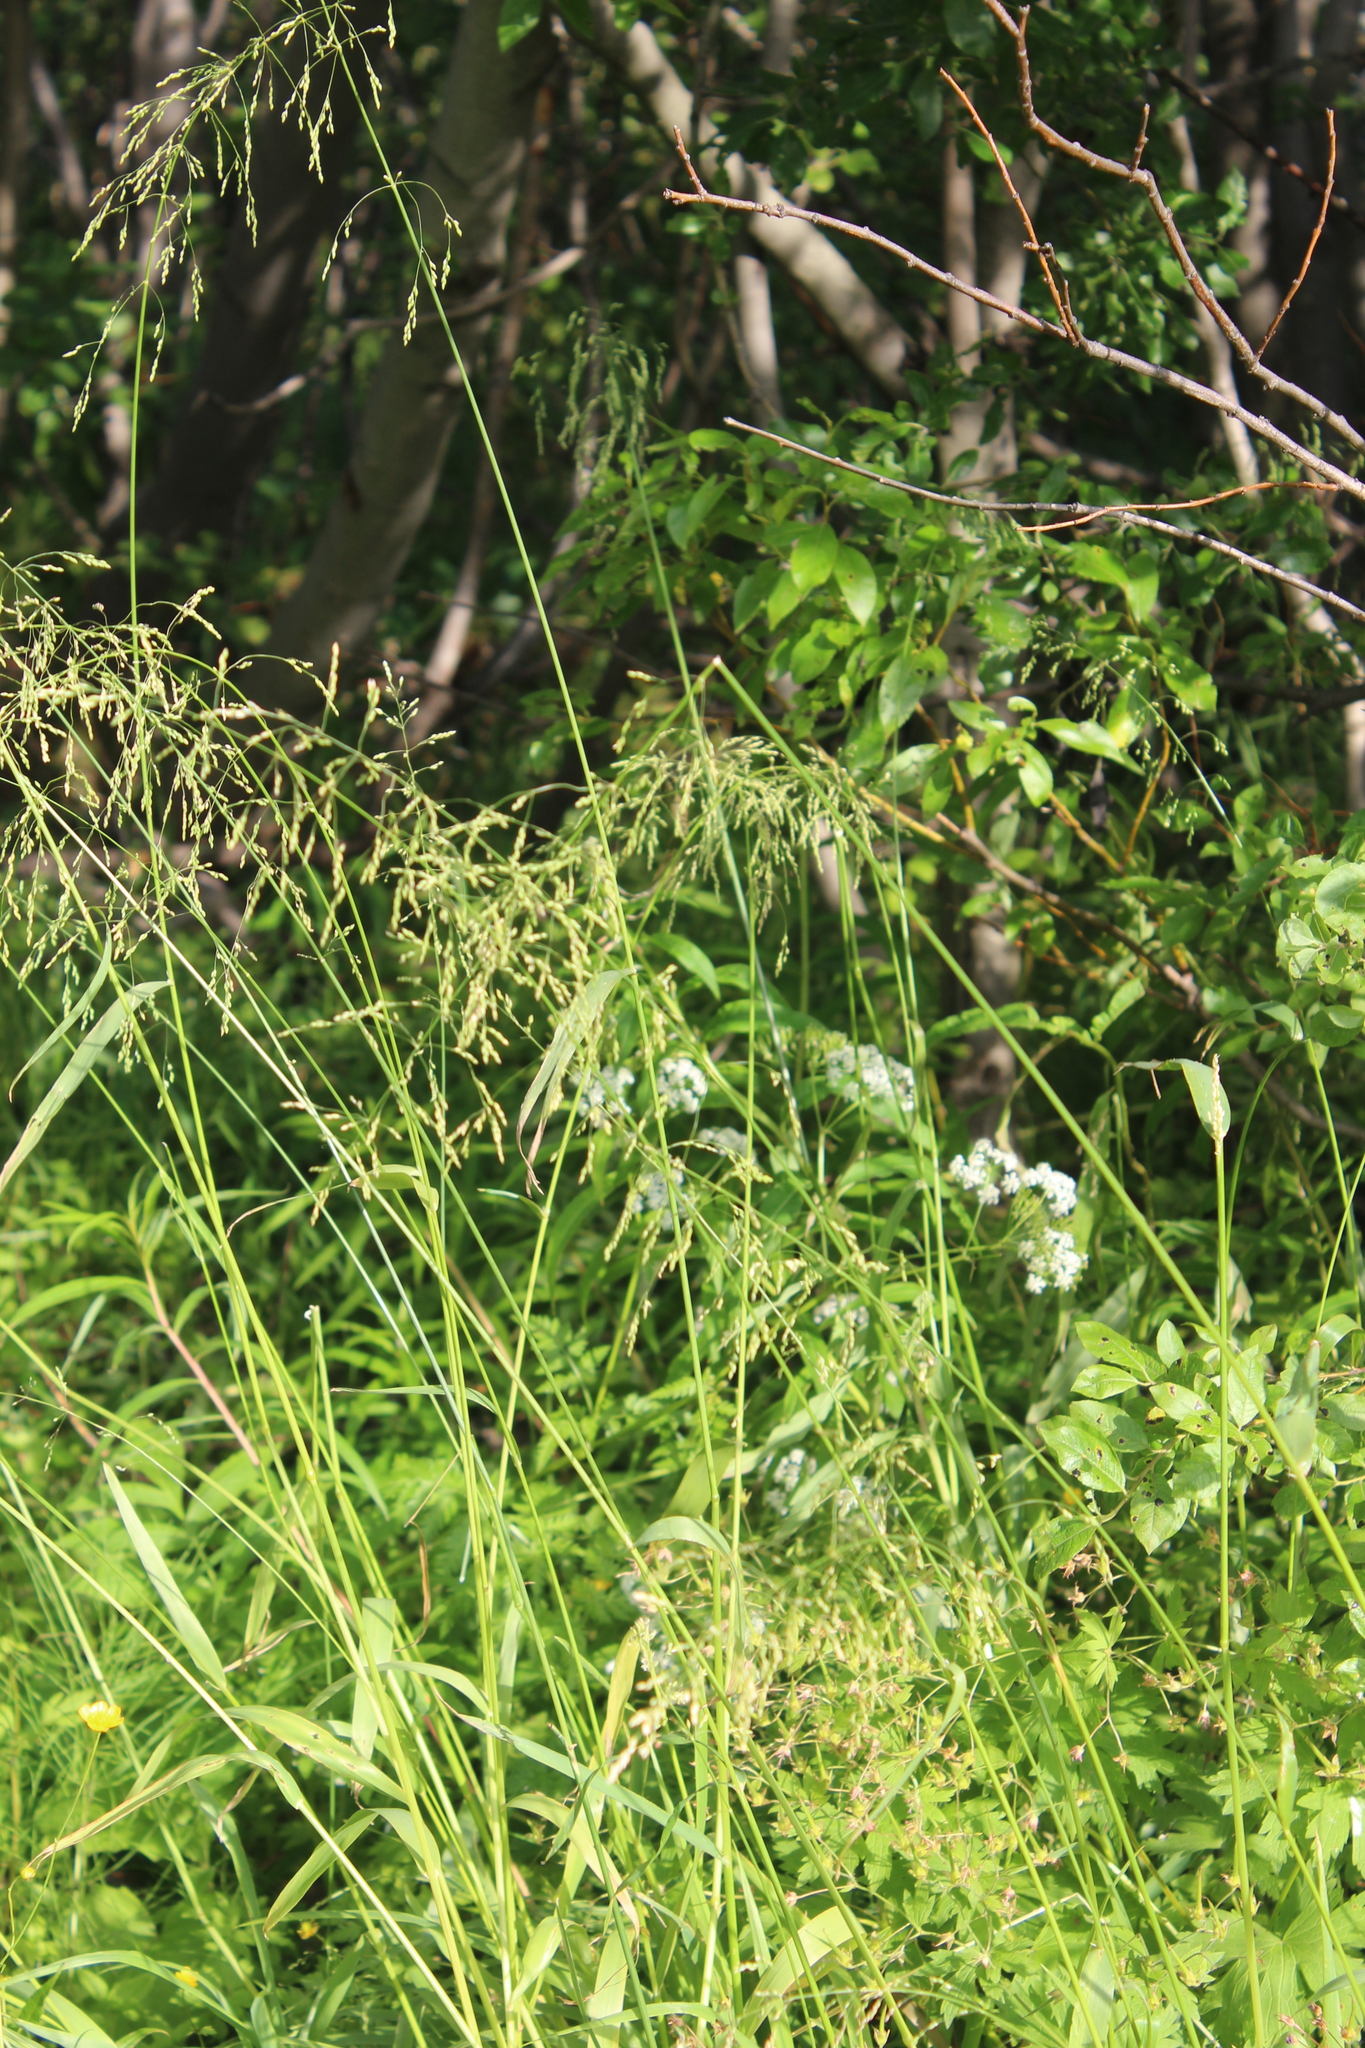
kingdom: Plantae
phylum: Tracheophyta
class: Liliopsida
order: Poales
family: Poaceae
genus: Milium
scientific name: Milium effusum
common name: Wood millet
